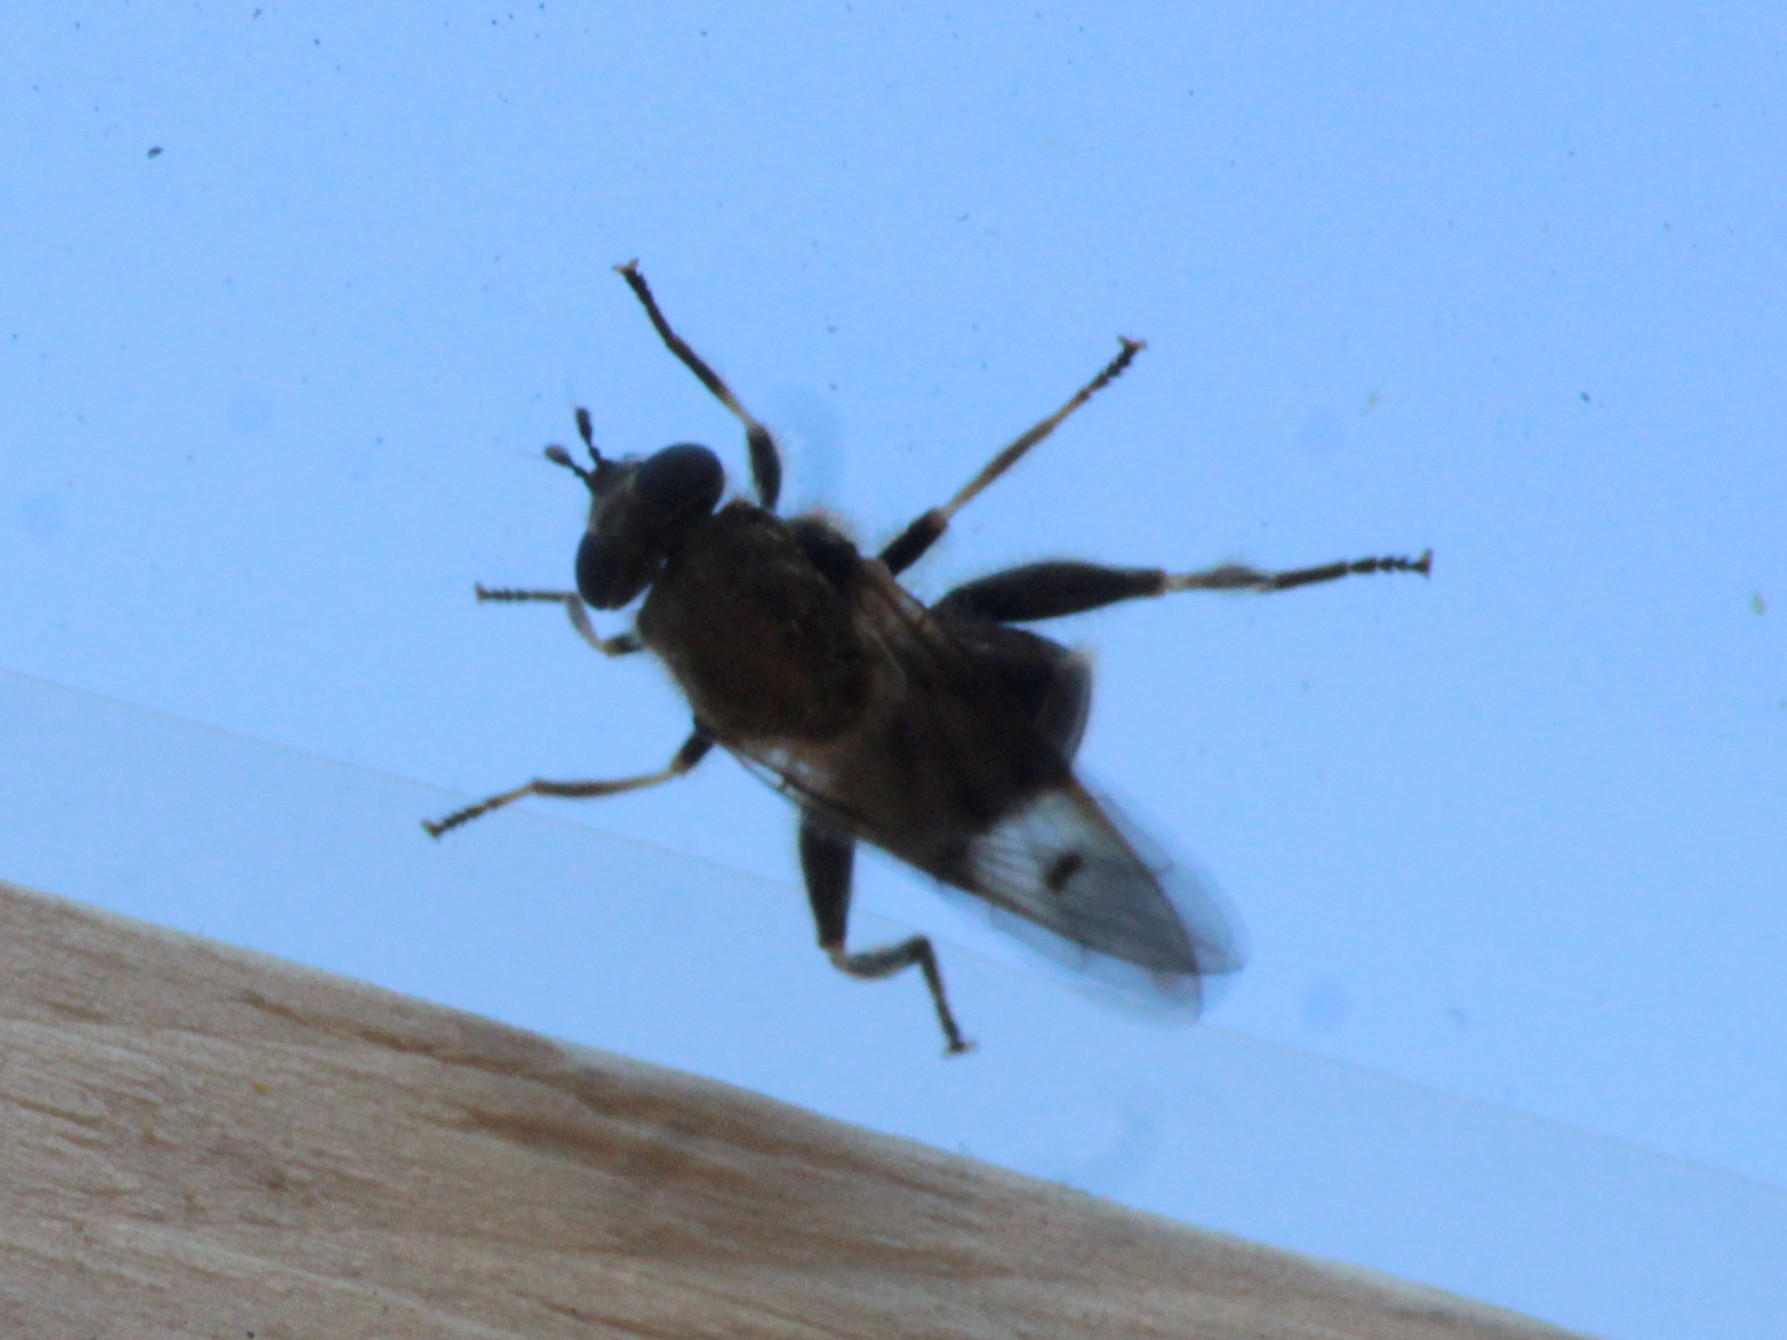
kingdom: Animalia
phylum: Arthropoda
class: Insecta
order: Diptera
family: Syrphidae
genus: Brachypalpus
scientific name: Brachypalpus oarus
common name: Eastern catkin fly
